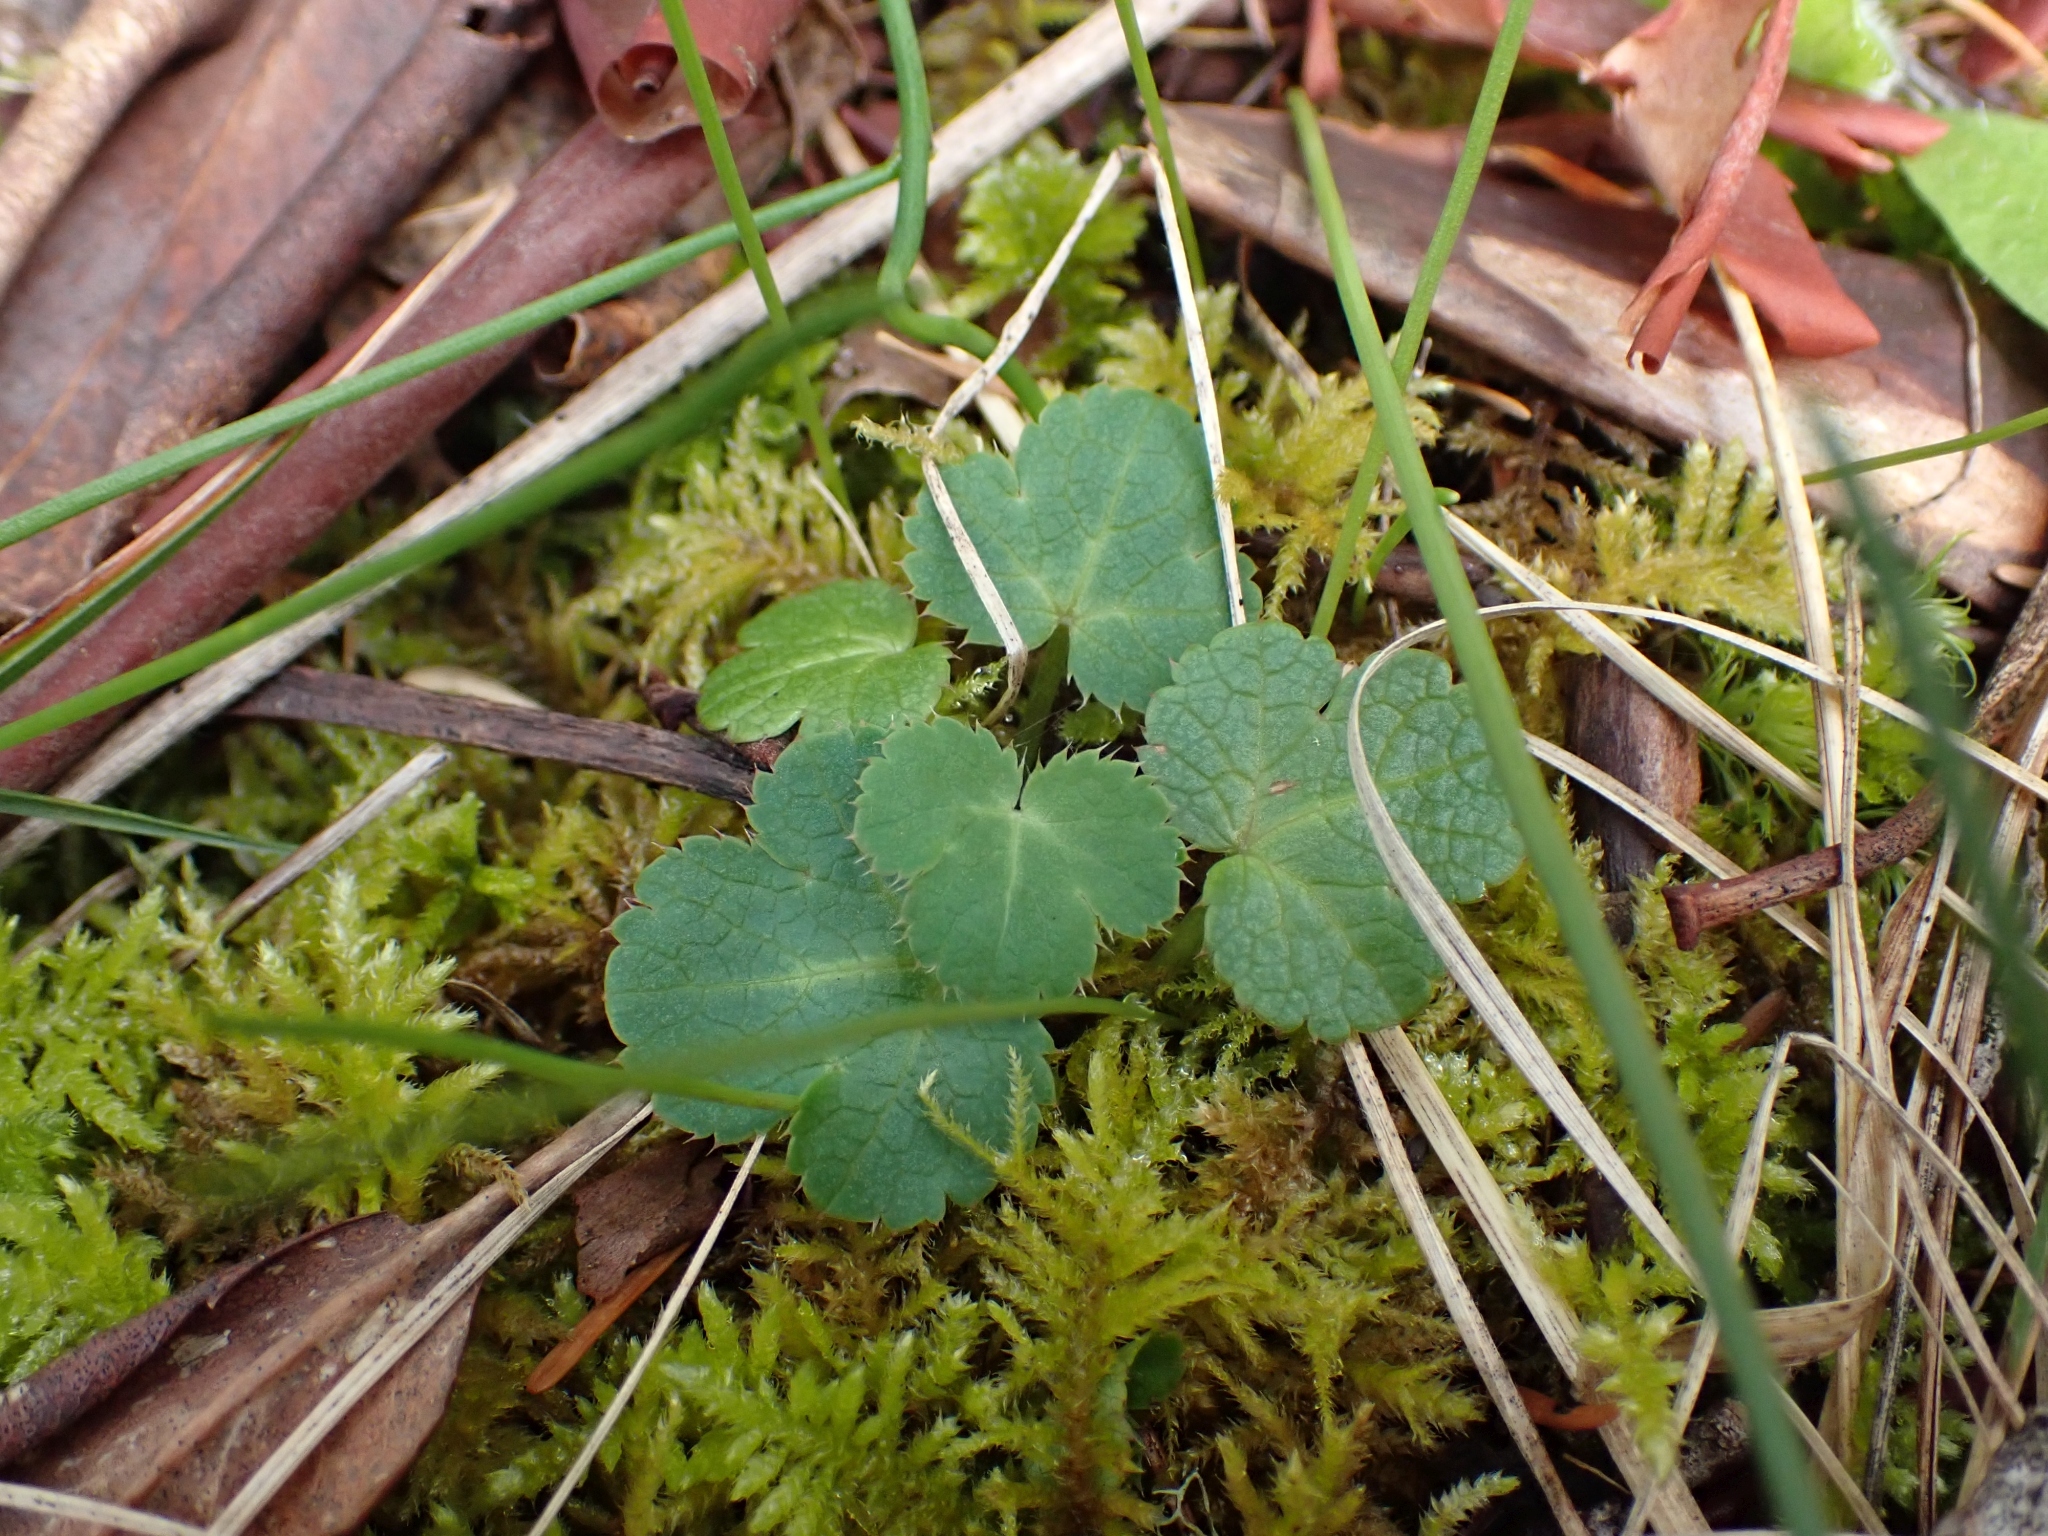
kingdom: Plantae
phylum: Tracheophyta
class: Magnoliopsida
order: Apiales
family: Apiaceae
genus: Sanicula
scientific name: Sanicula crassicaulis
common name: Western snakeroot
